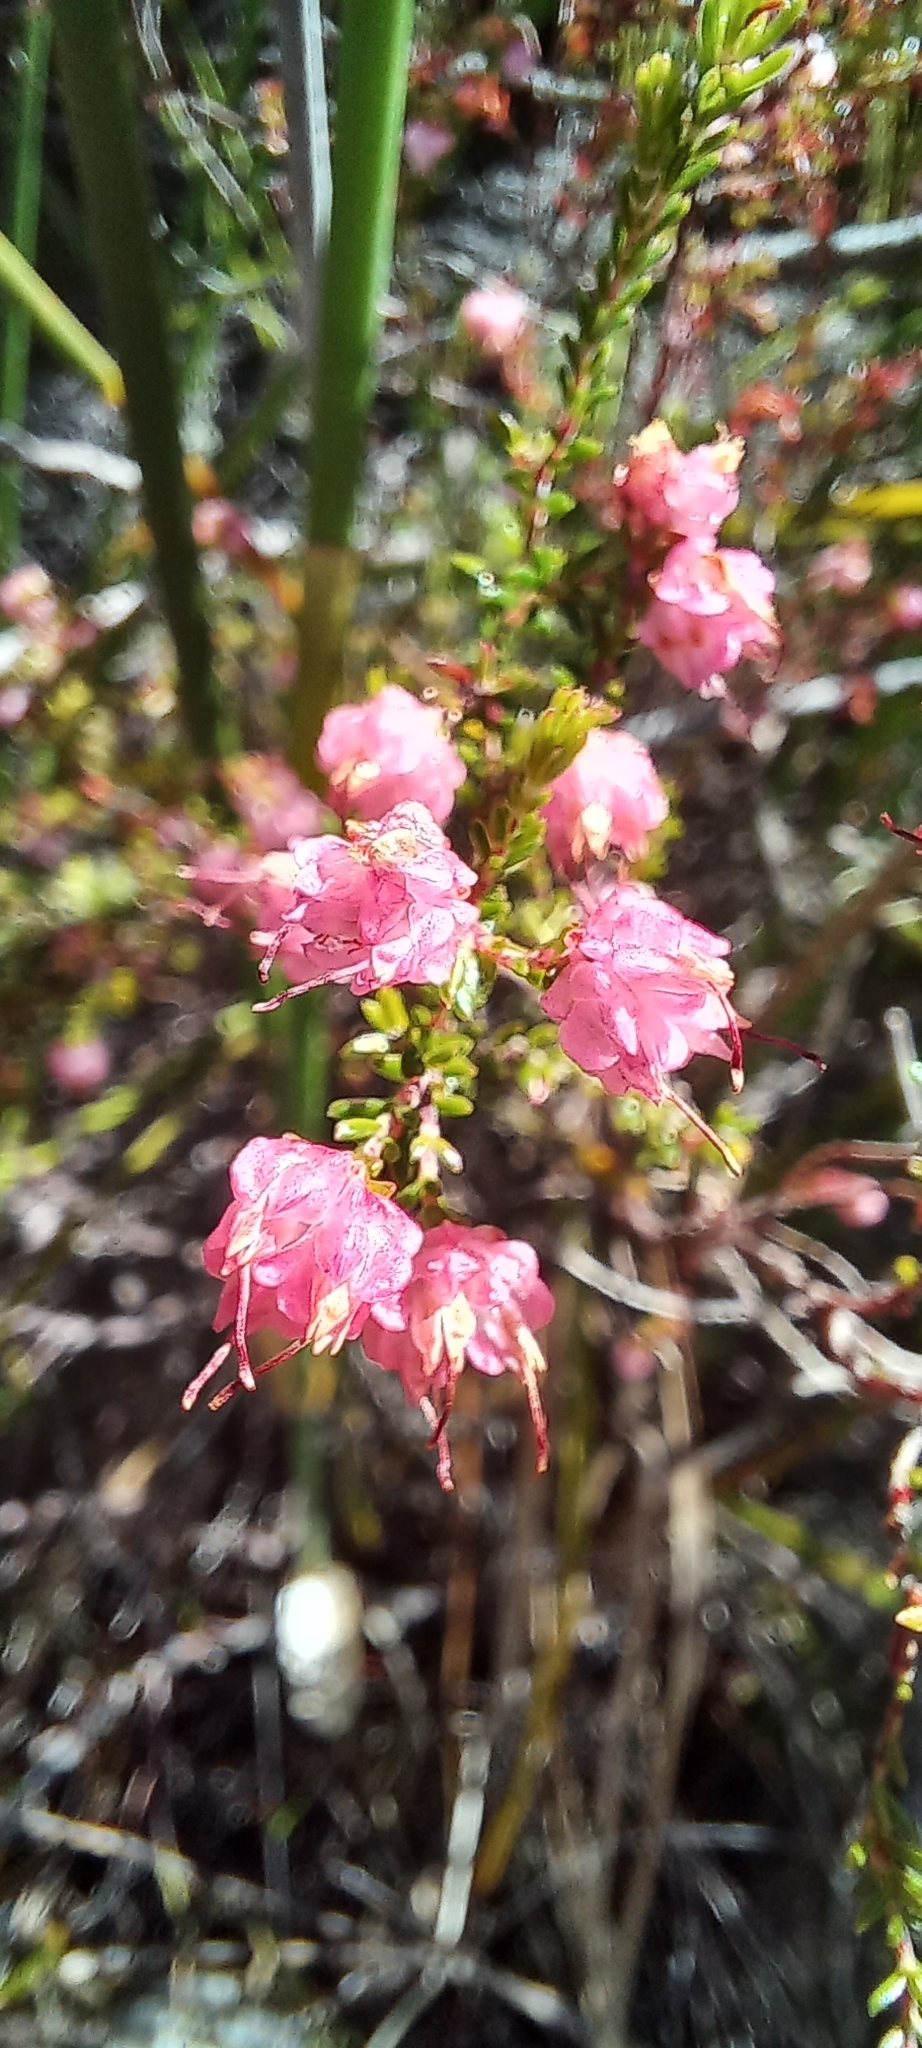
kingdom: Plantae
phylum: Tracheophyta
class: Magnoliopsida
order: Ericales
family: Ericaceae
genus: Erica
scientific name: Erica spumosa
